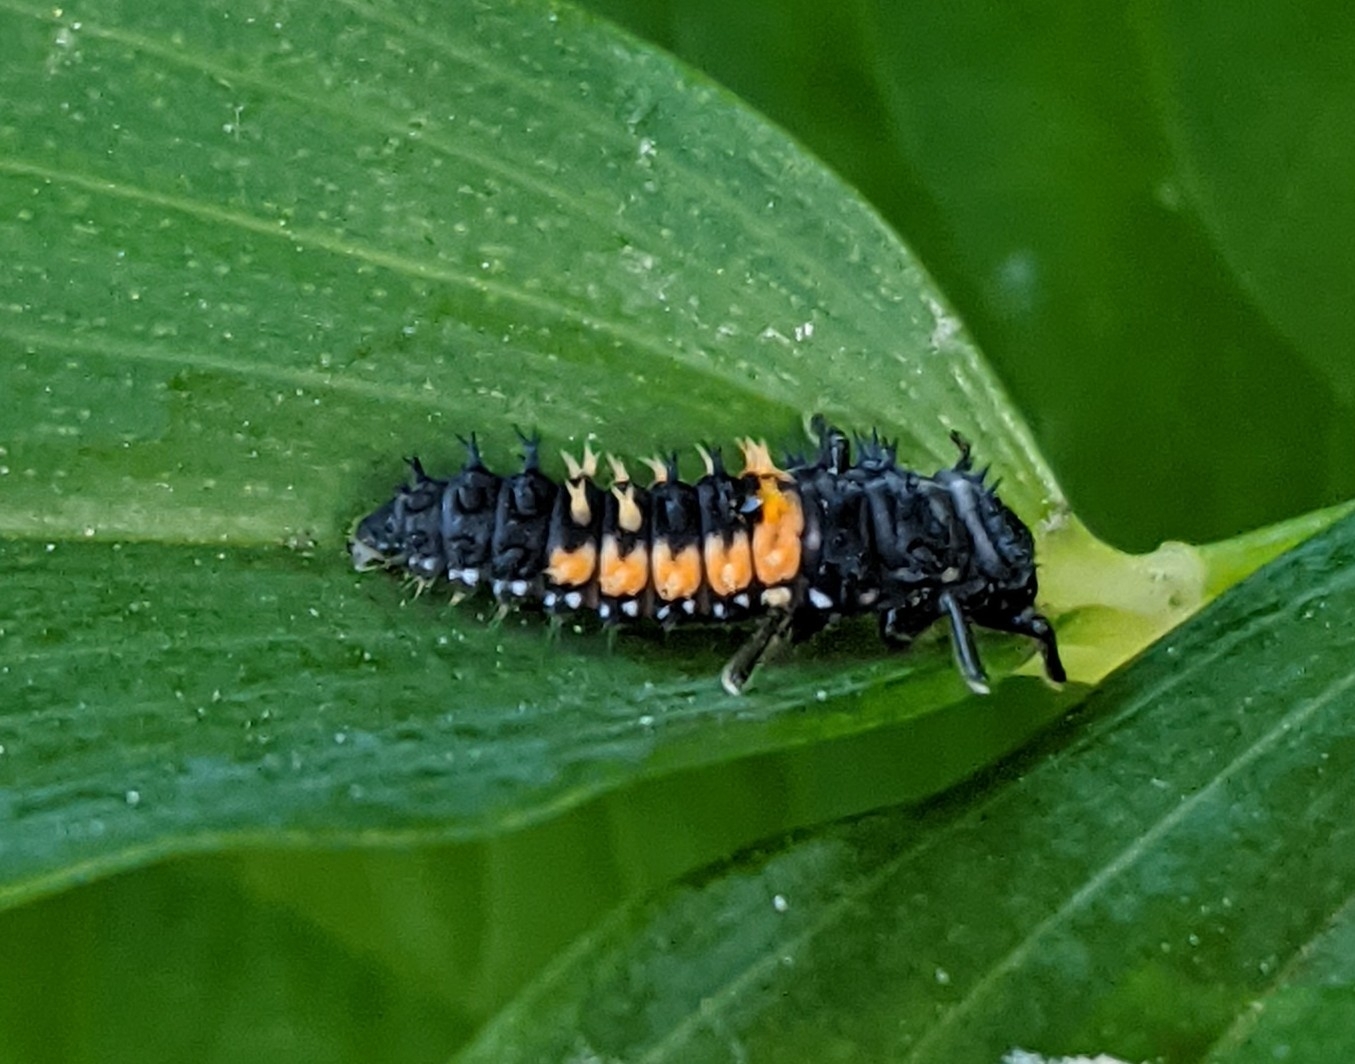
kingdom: Animalia
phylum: Arthropoda
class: Insecta
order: Coleoptera
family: Coccinellidae
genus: Harmonia
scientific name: Harmonia axyridis
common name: Harlequin ladybird
